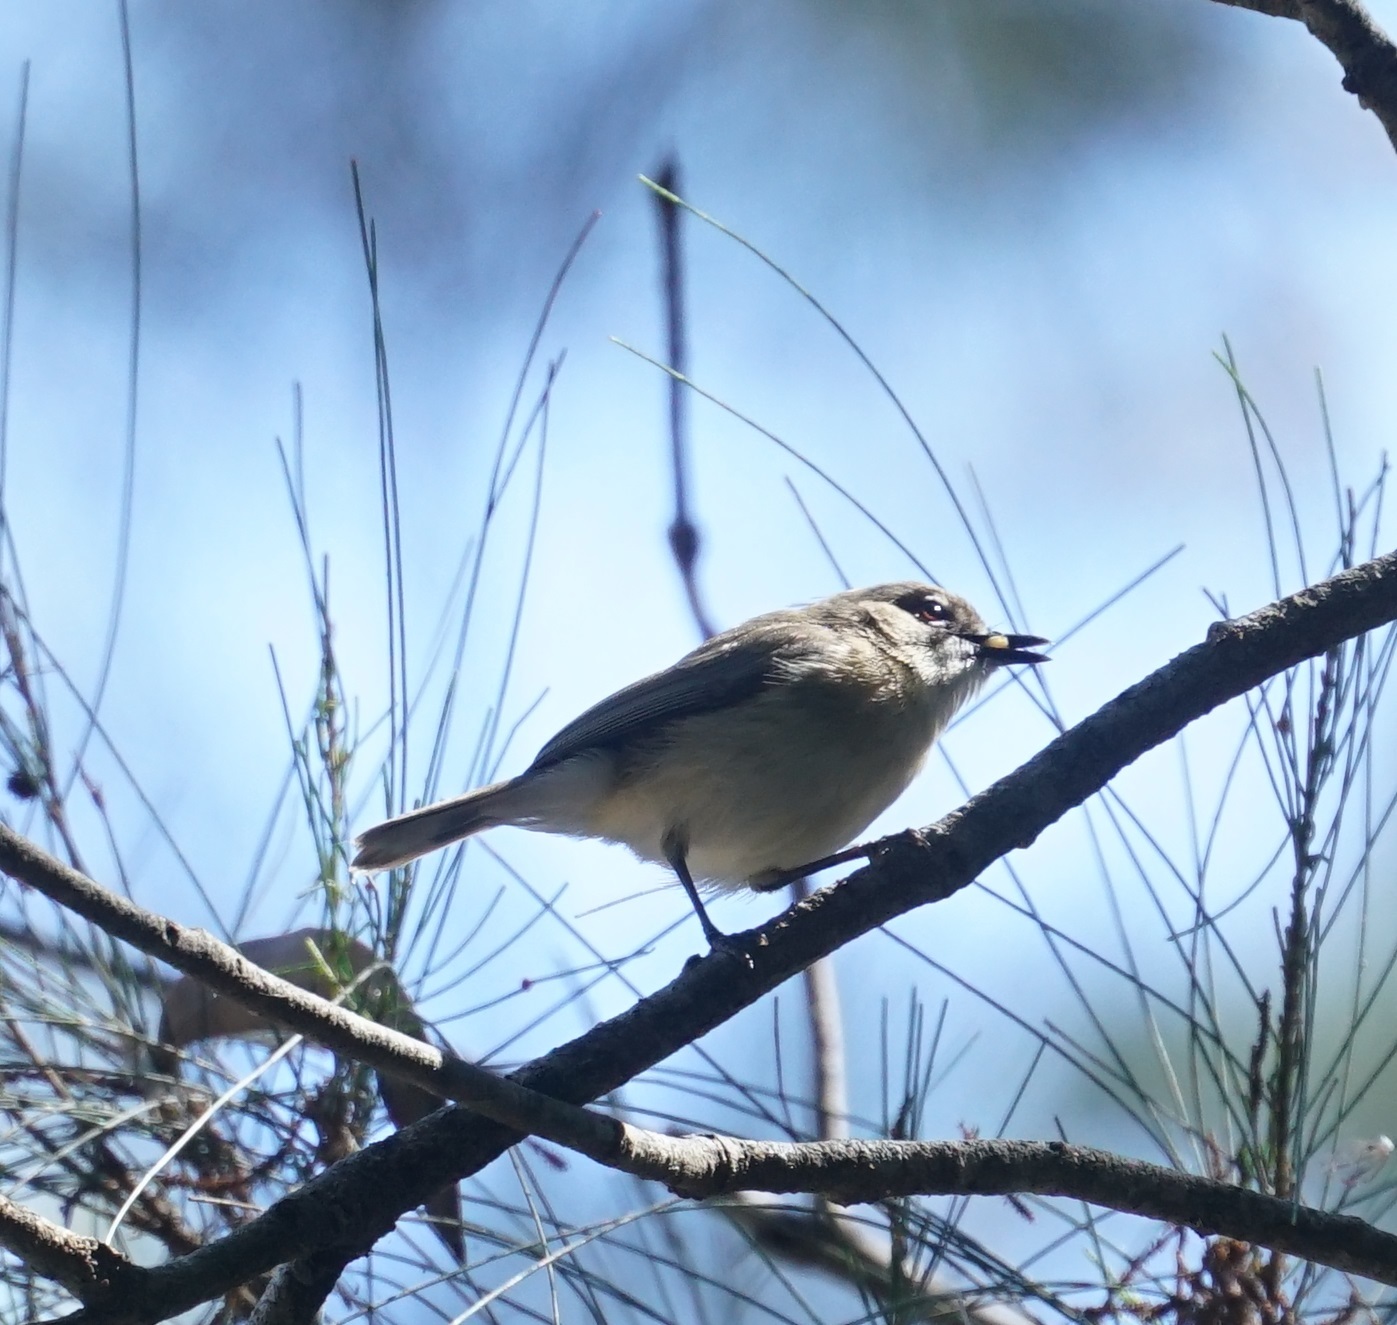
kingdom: Animalia
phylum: Chordata
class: Aves
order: Passeriformes
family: Acanthizidae
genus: Gerygone
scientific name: Gerygone magnirostris
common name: Large-billed gerygone
